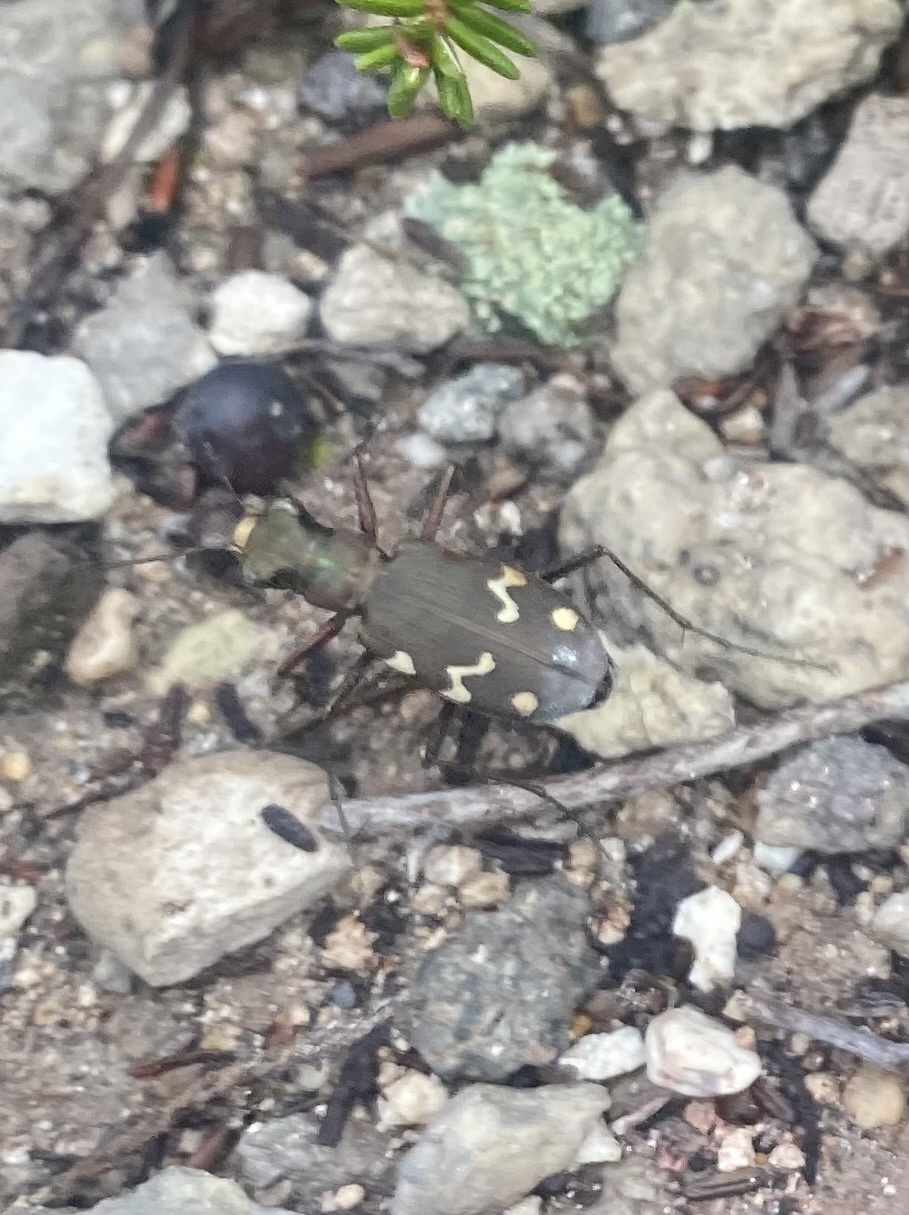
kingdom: Animalia
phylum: Arthropoda
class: Insecta
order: Coleoptera
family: Carabidae
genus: Cicindela
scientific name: Cicindela sachalinensis
